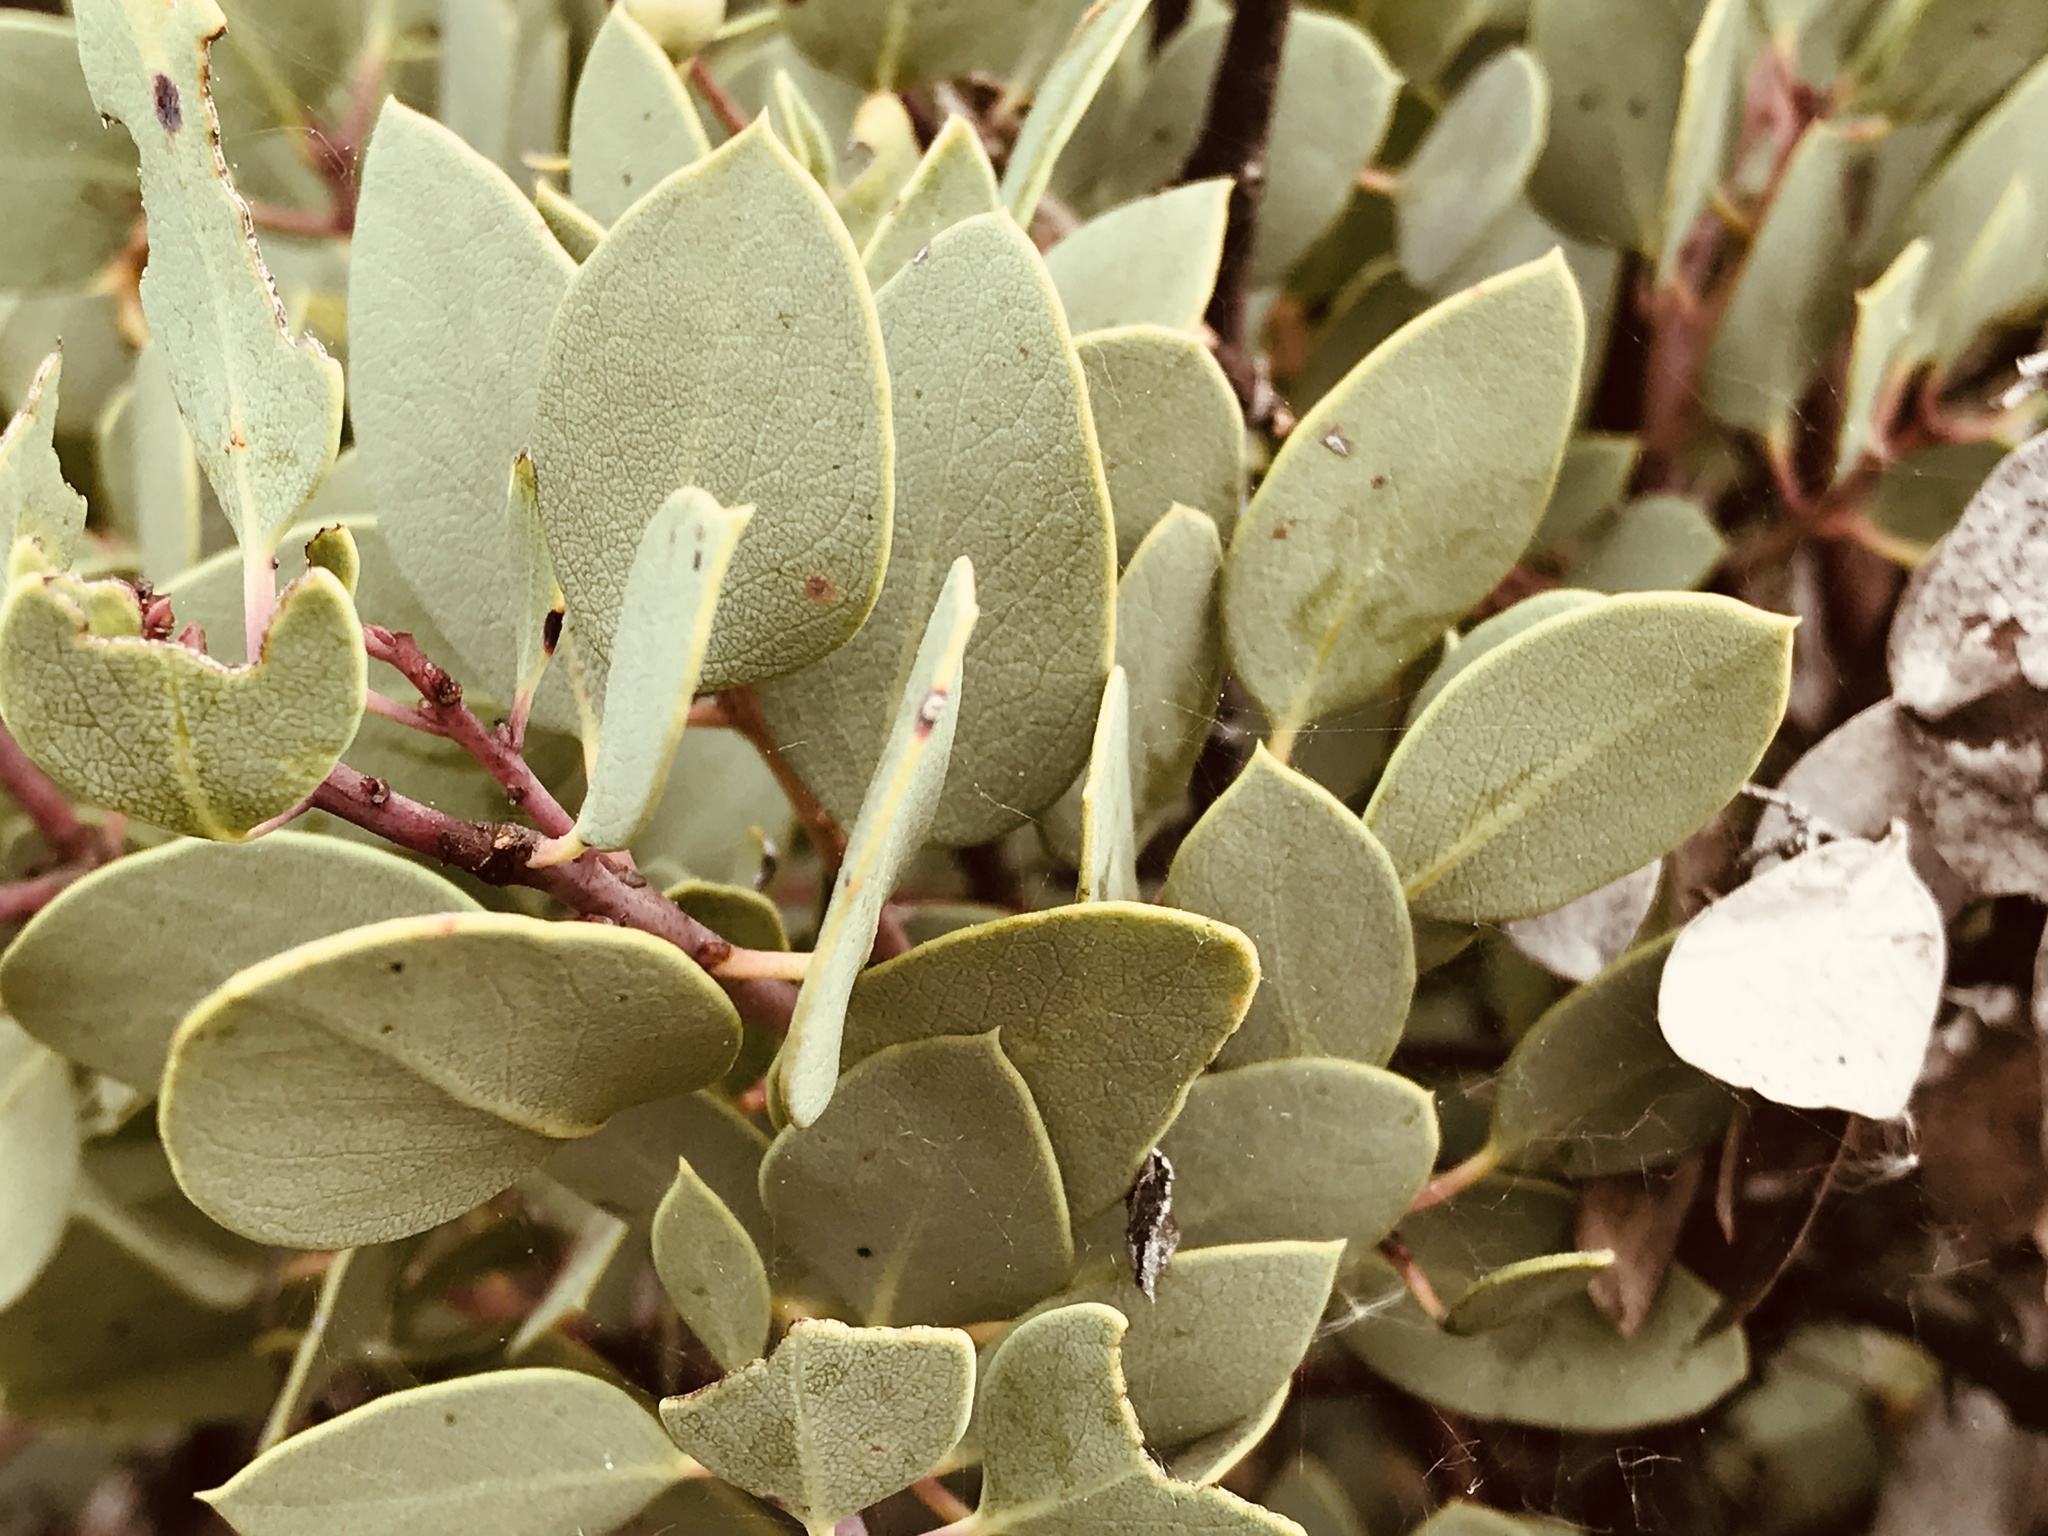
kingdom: Plantae
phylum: Tracheophyta
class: Magnoliopsida
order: Ericales
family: Ericaceae
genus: Arctostaphylos
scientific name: Arctostaphylos glauca
